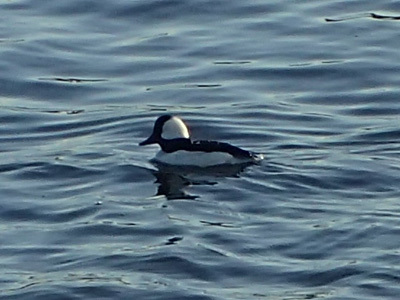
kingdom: Animalia
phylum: Chordata
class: Aves
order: Anseriformes
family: Anatidae
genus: Bucephala
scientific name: Bucephala albeola
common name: Bufflehead
